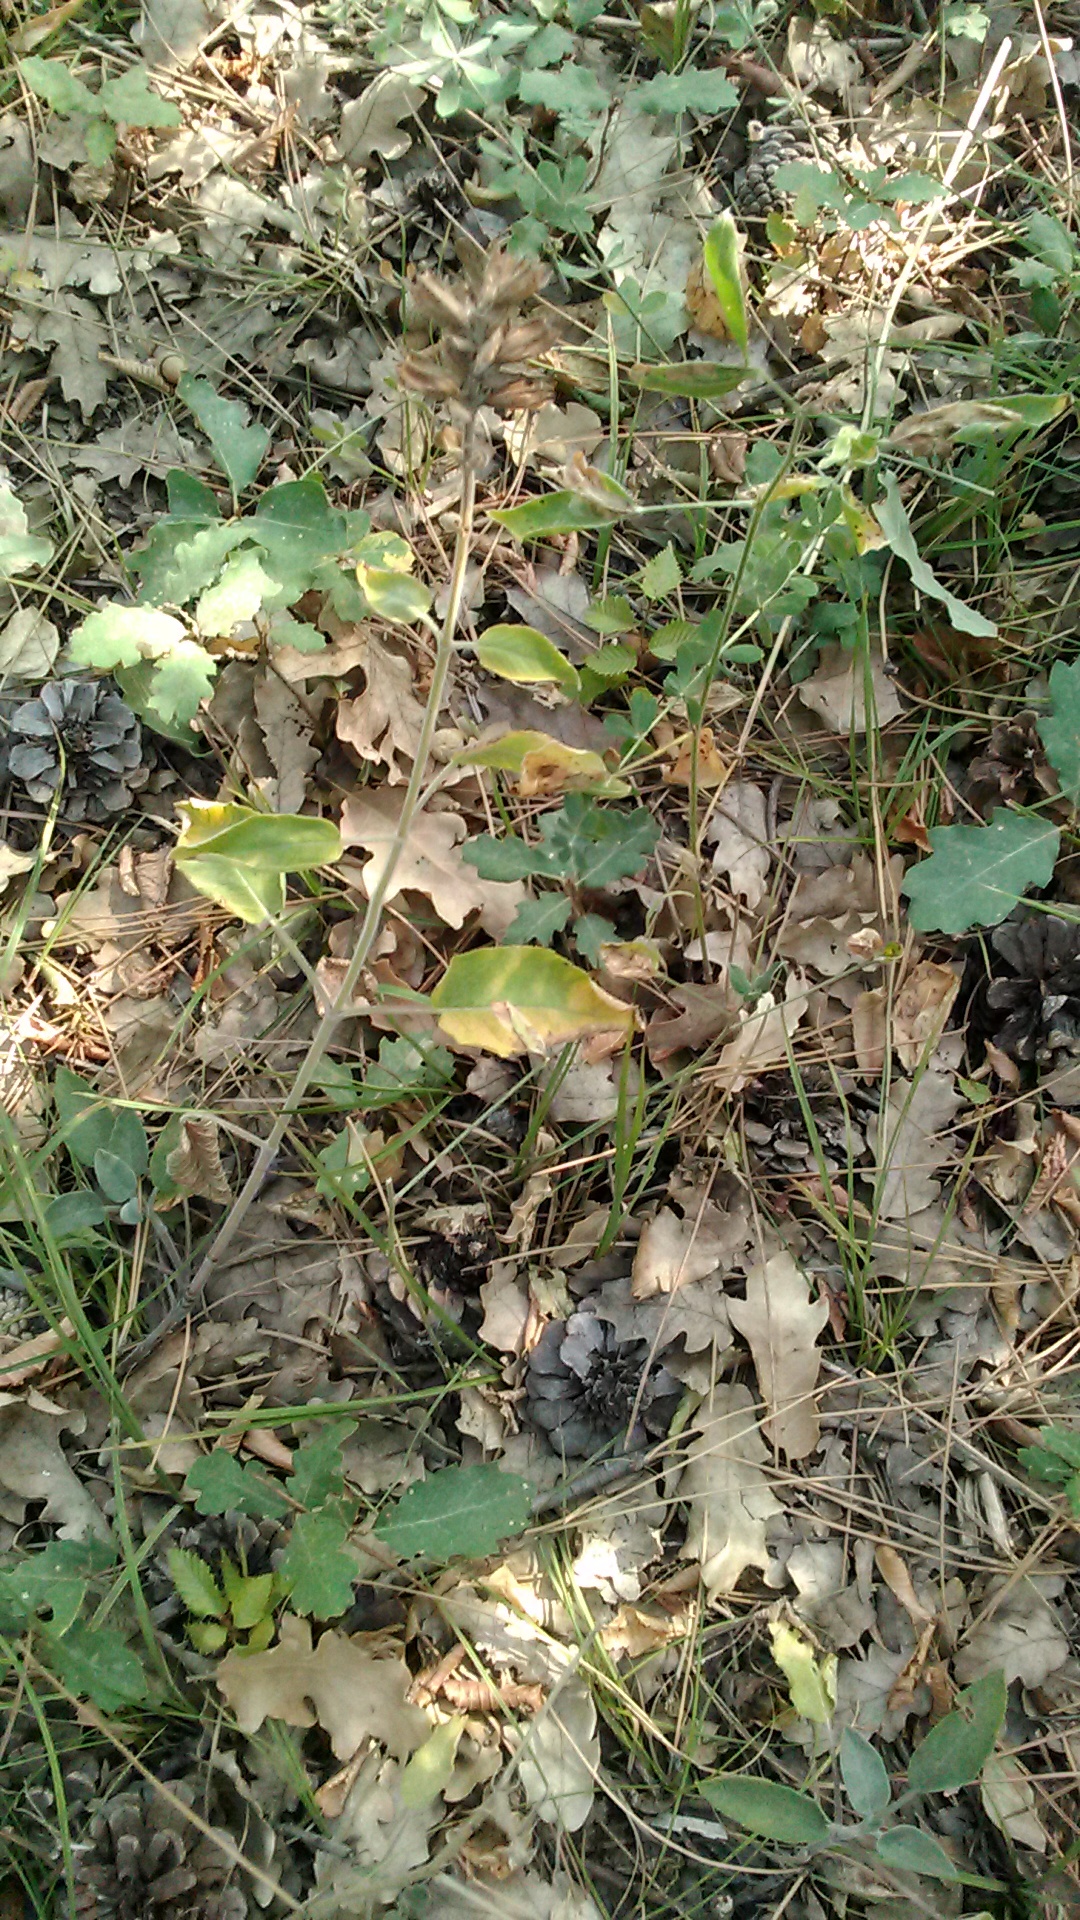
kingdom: Plantae
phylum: Tracheophyta
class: Magnoliopsida
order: Lamiales
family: Lamiaceae
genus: Salvia
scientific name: Salvia tomentosa
